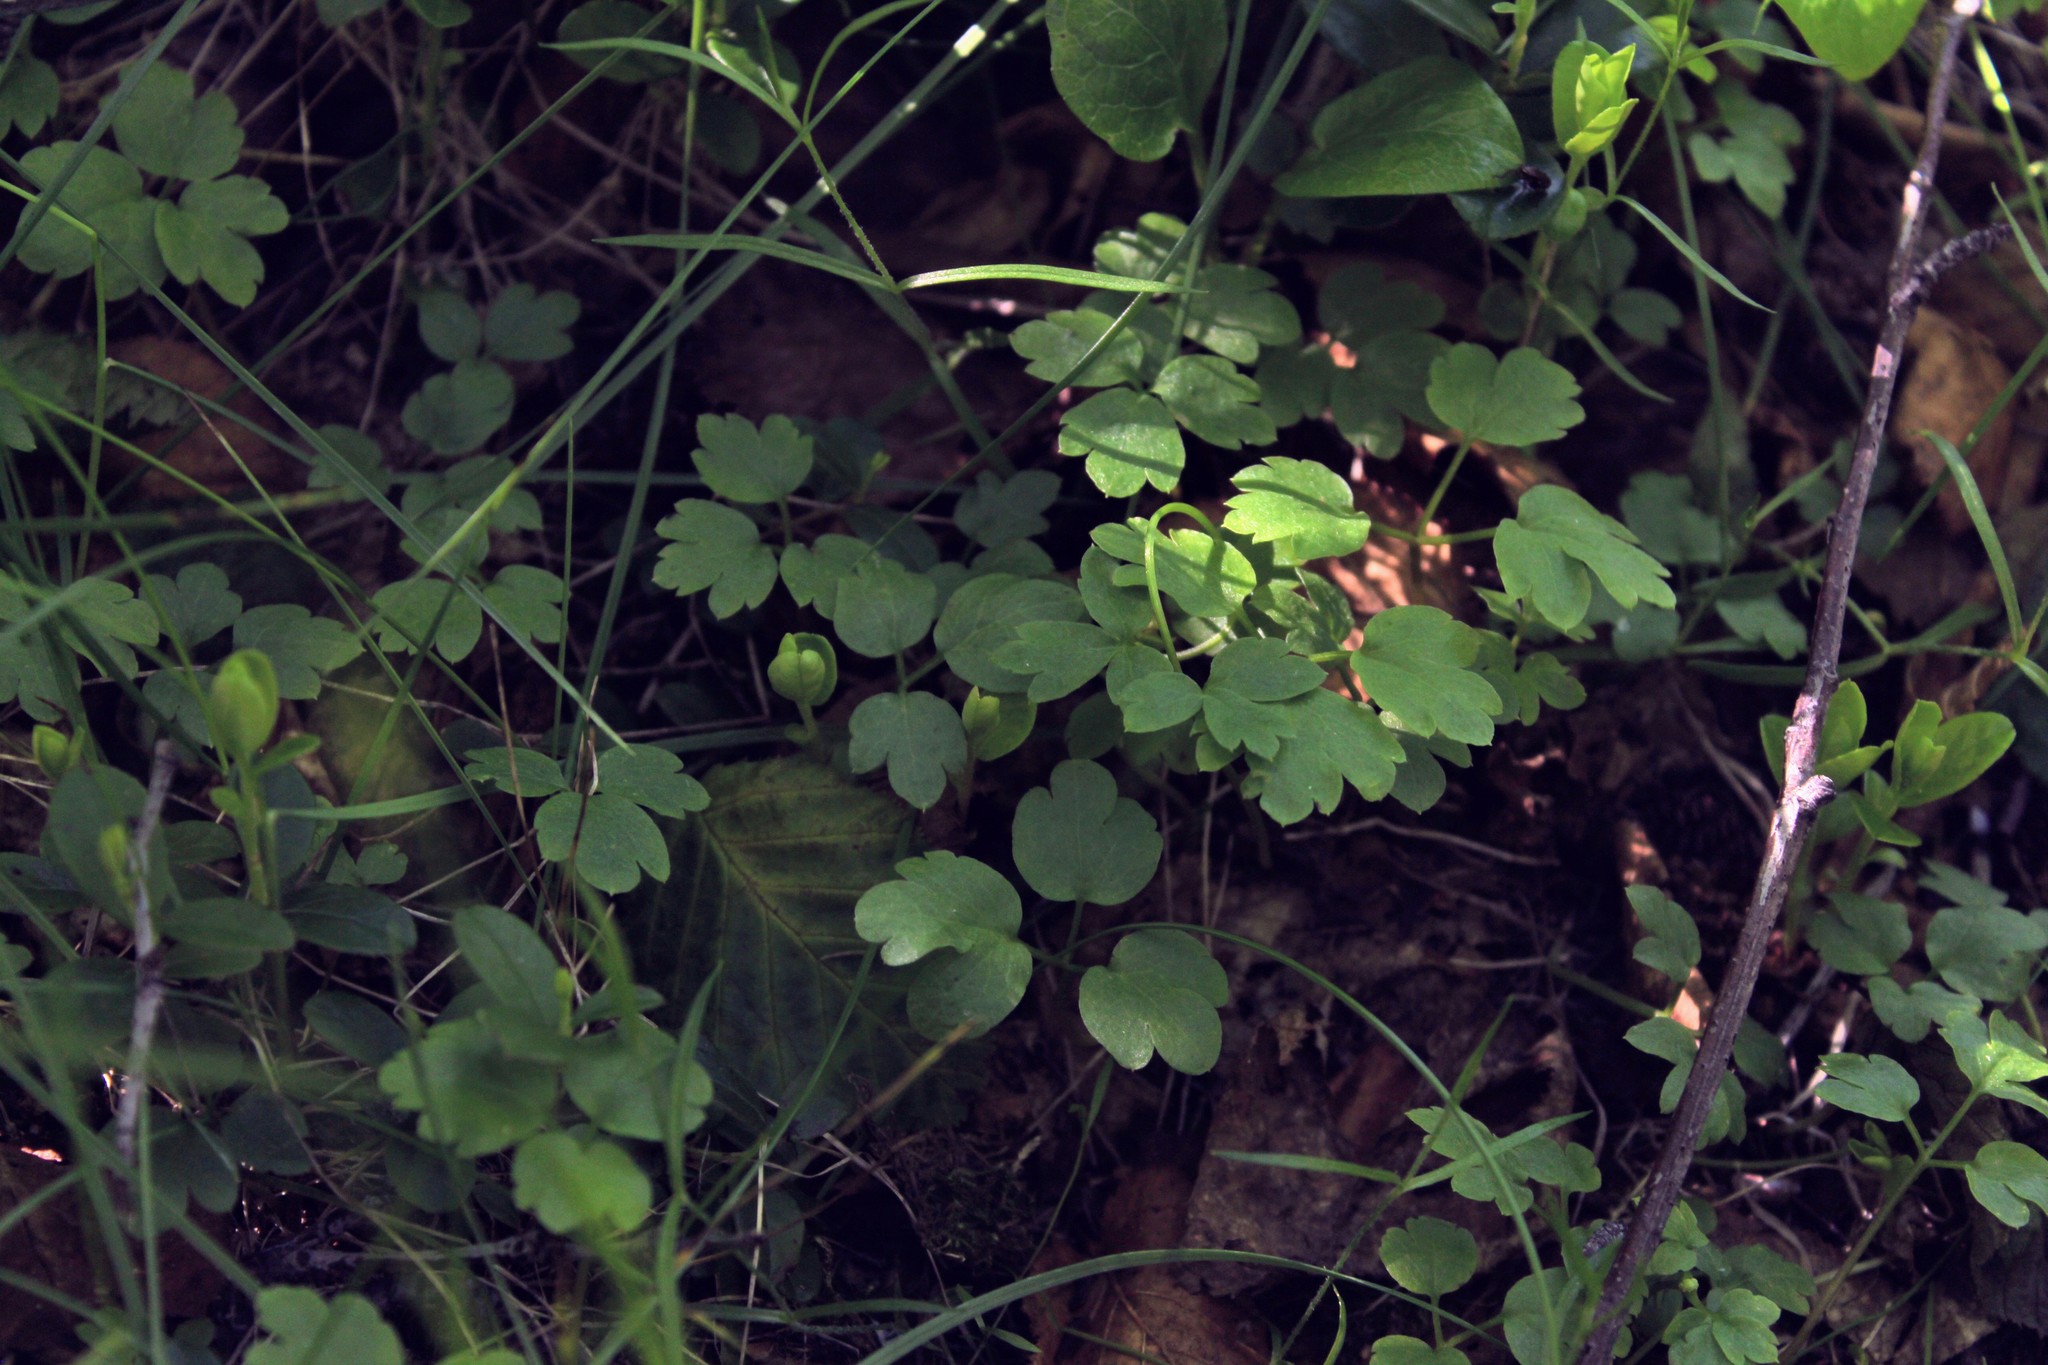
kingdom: Plantae
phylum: Tracheophyta
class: Magnoliopsida
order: Dipsacales
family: Viburnaceae
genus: Adoxa
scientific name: Adoxa moschatellina
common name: Moschatel
